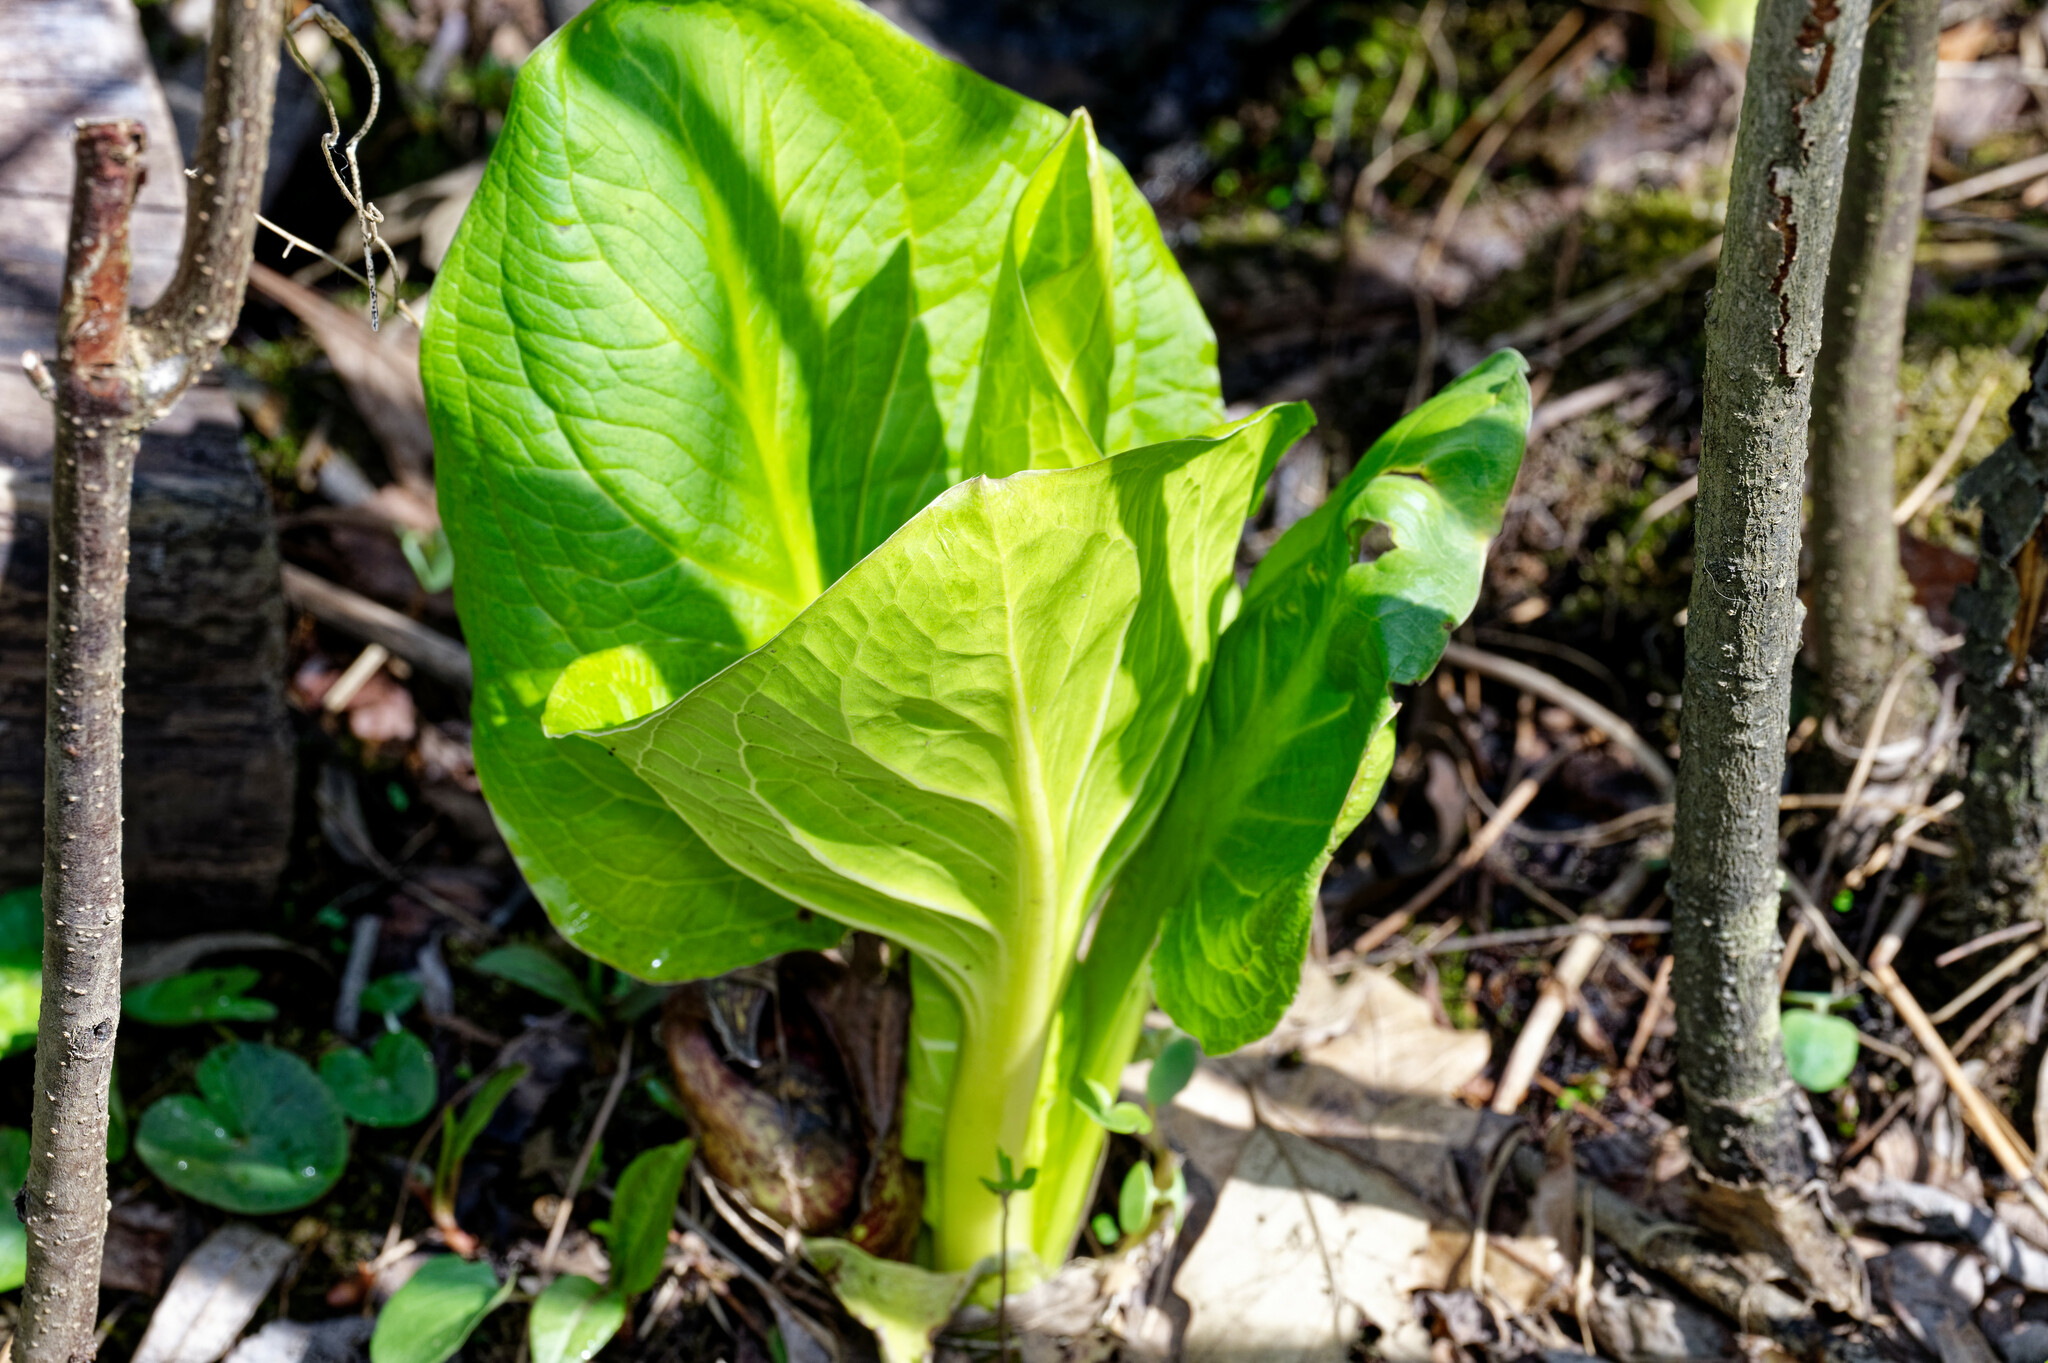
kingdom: Plantae
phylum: Tracheophyta
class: Liliopsida
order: Alismatales
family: Araceae
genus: Symplocarpus
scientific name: Symplocarpus foetidus
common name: Eastern skunk cabbage
